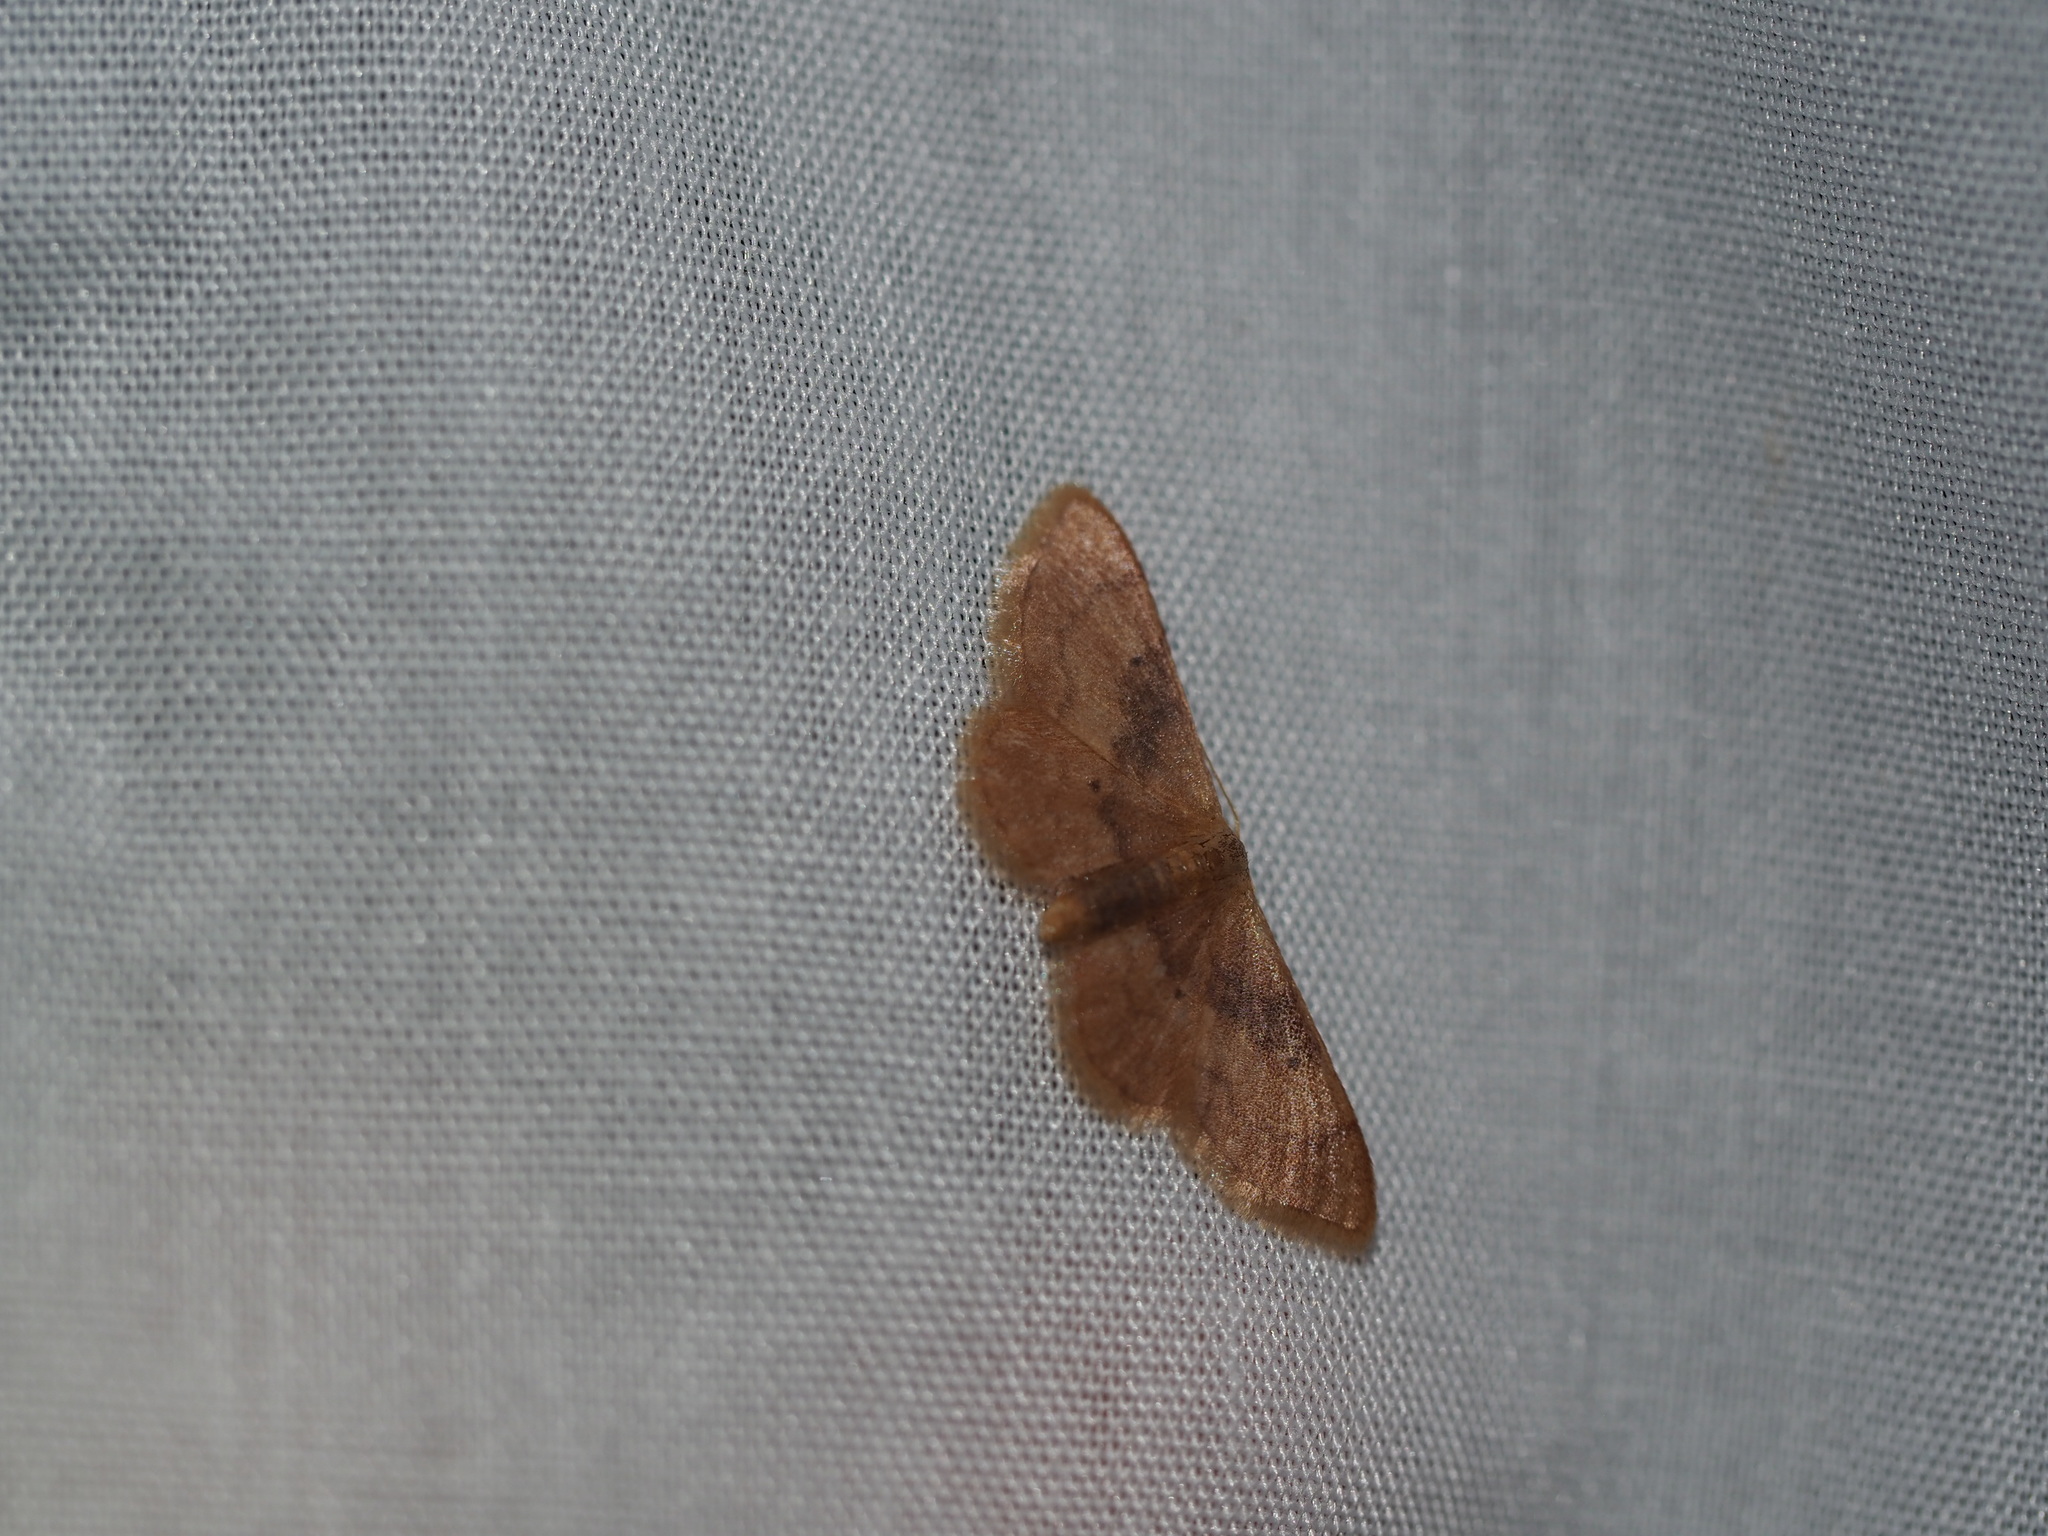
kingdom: Animalia
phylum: Arthropoda
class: Insecta
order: Lepidoptera
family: Geometridae
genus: Idaea
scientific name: Idaea demissaria
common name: Red-bordered wave
